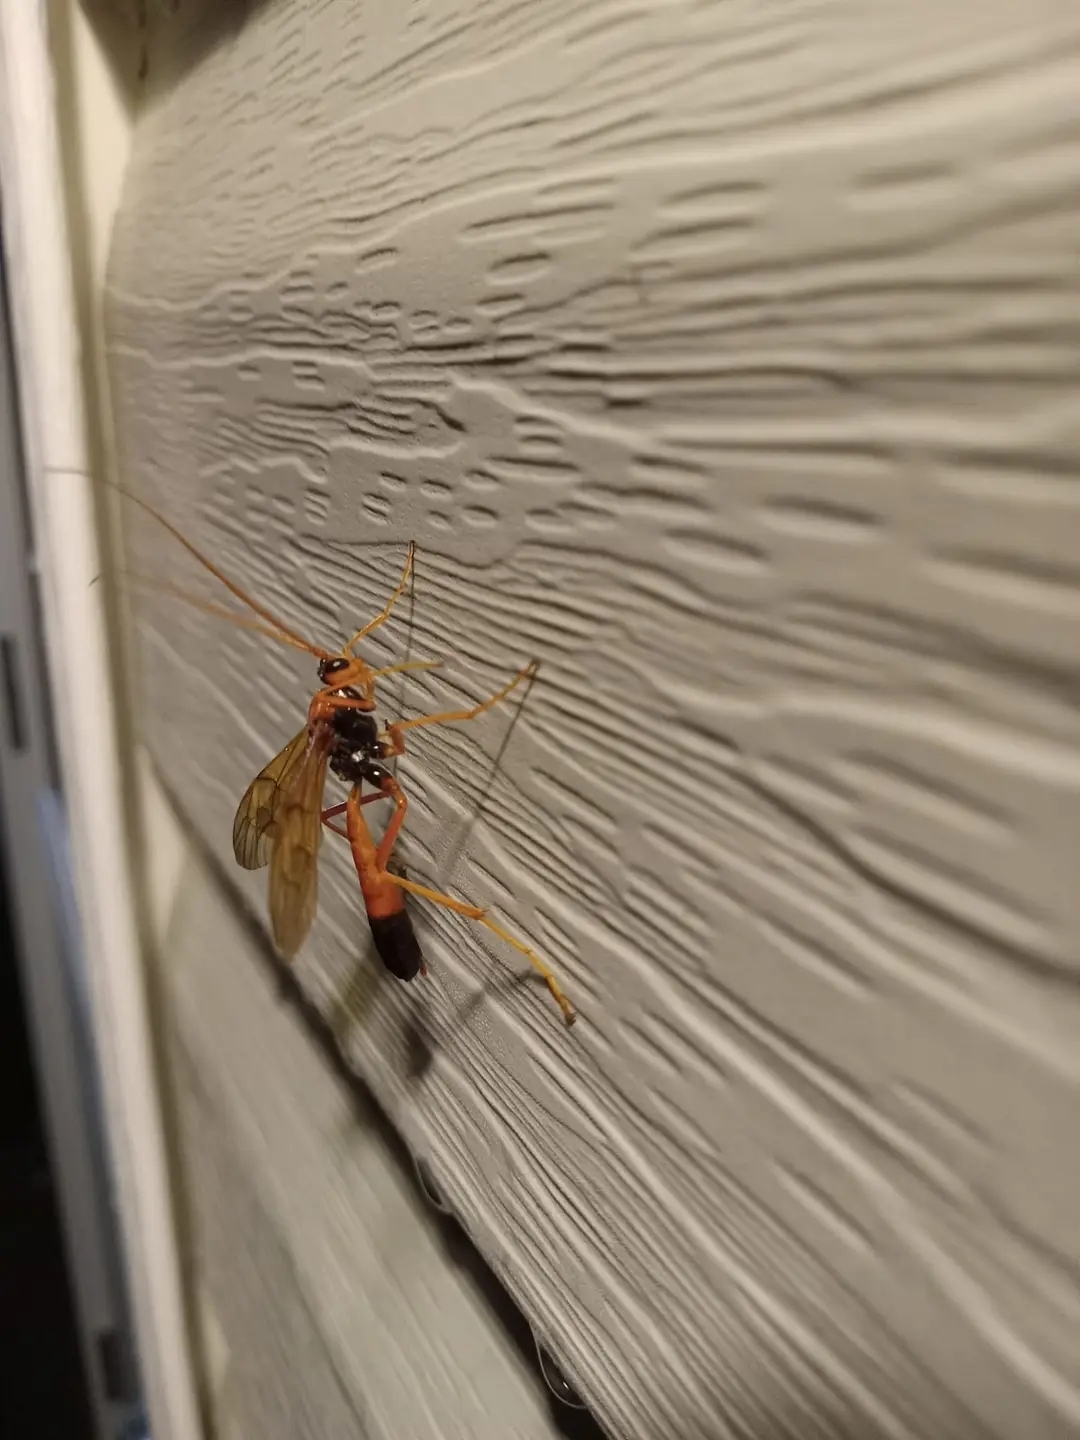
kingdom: Animalia
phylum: Arthropoda
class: Insecta
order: Hymenoptera
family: Ichneumonidae
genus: Opheltes
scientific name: Opheltes glaucopterus
